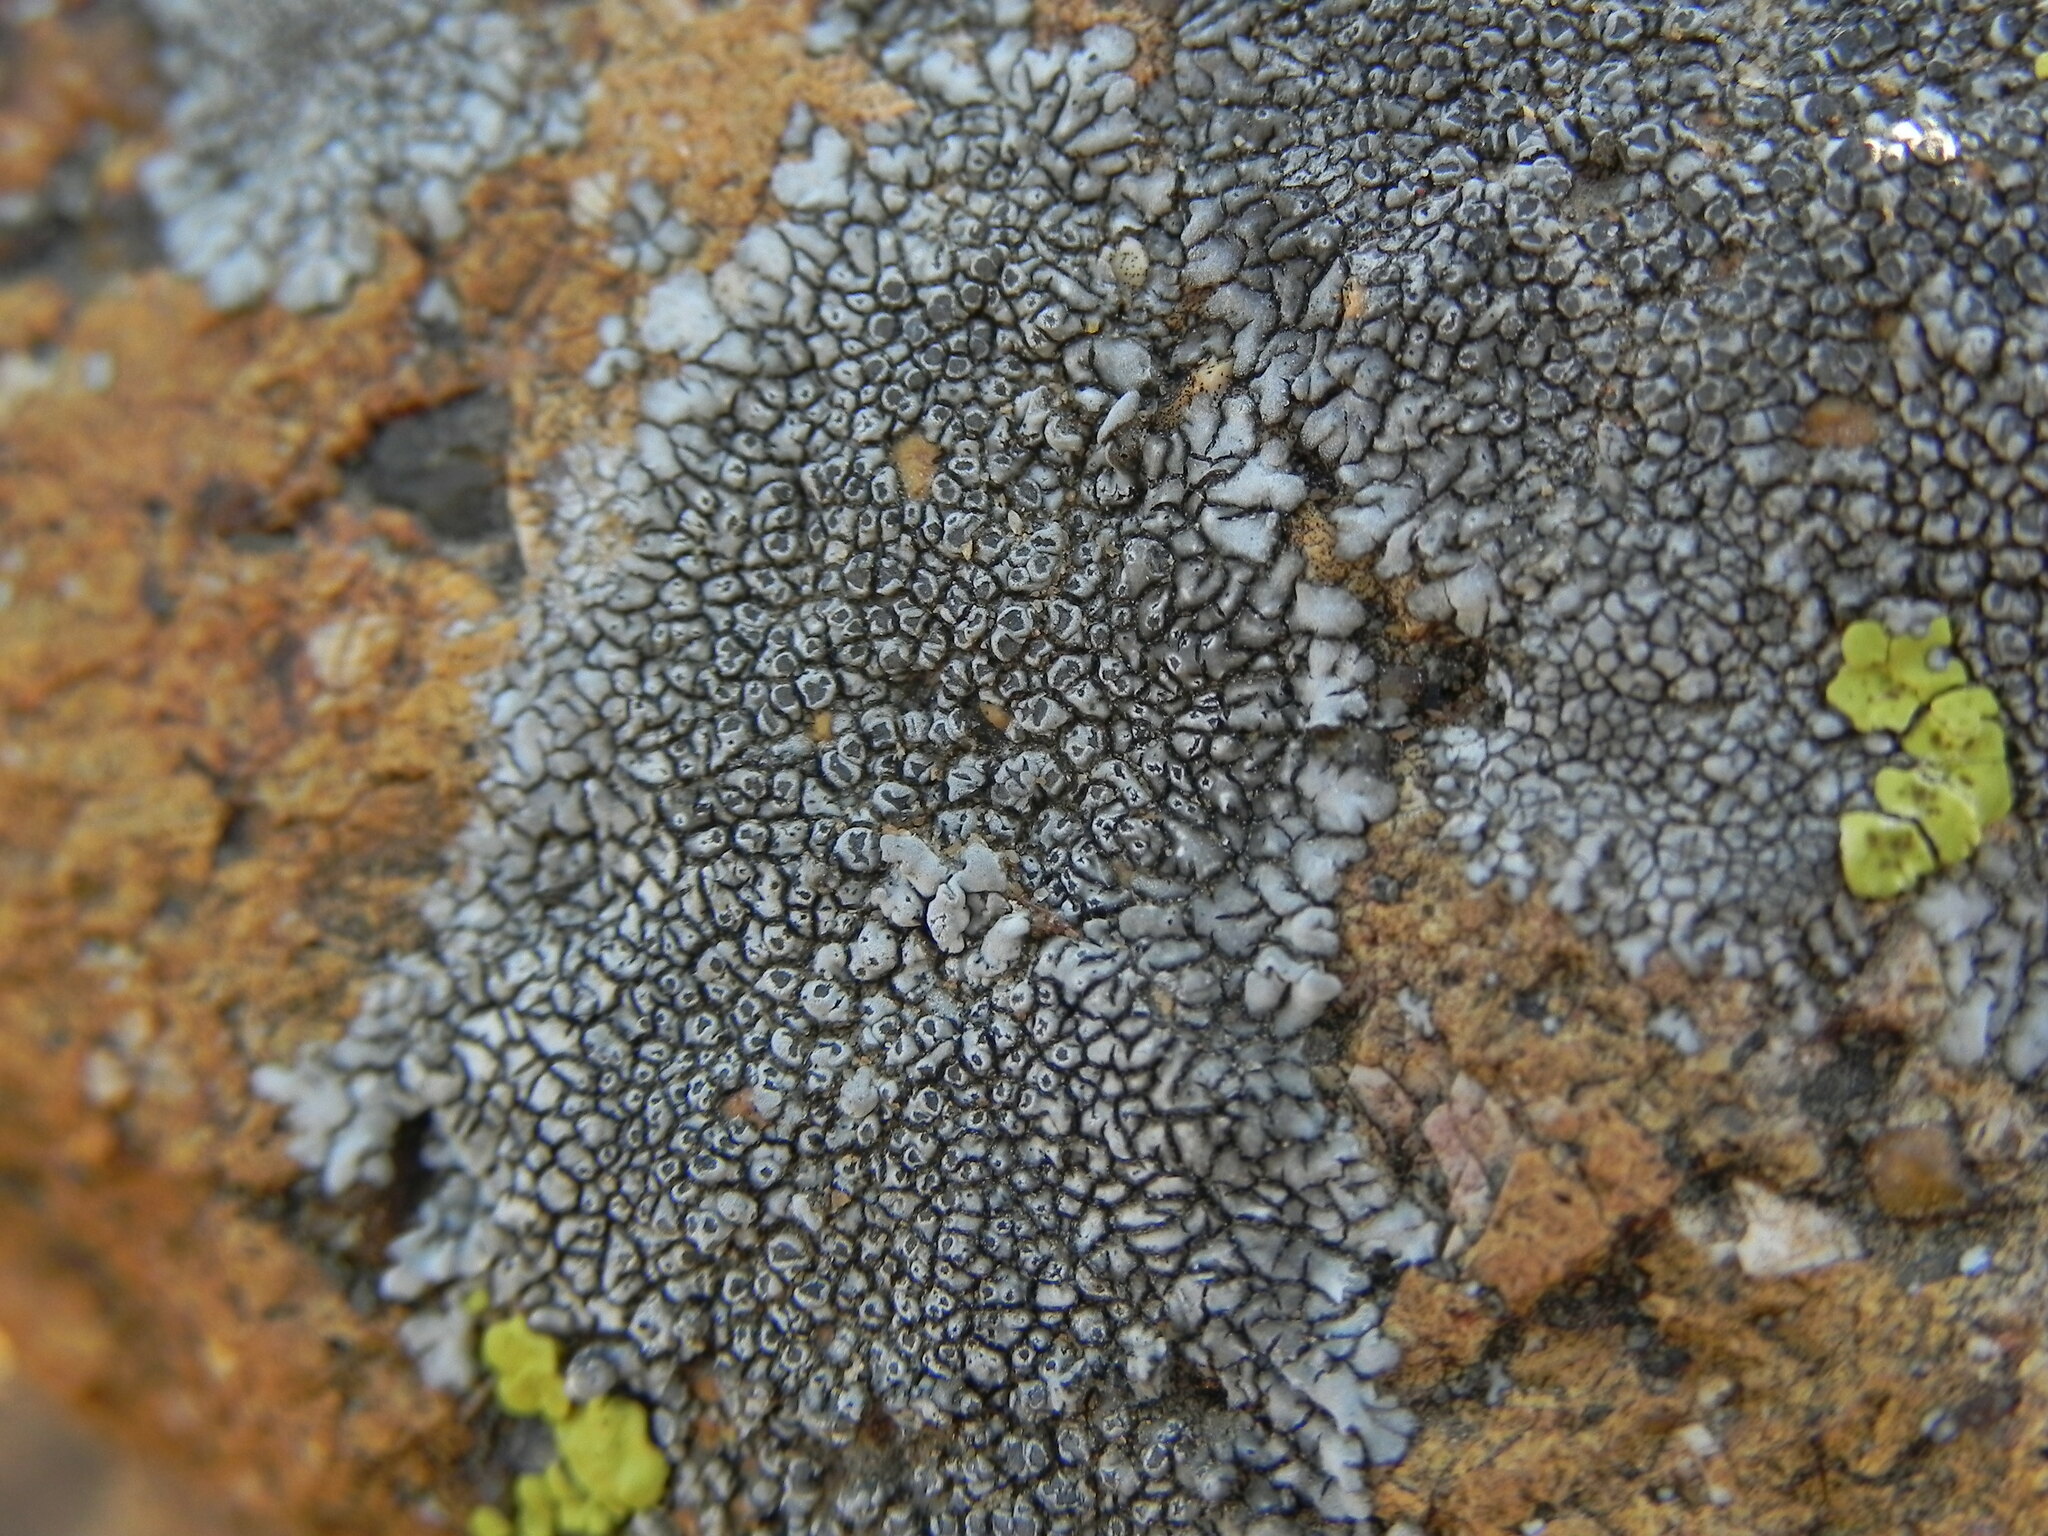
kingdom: Fungi
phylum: Ascomycota
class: Lecanoromycetes
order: Caliciales
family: Caliciaceae
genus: Dimelaena
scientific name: Dimelaena radiata
